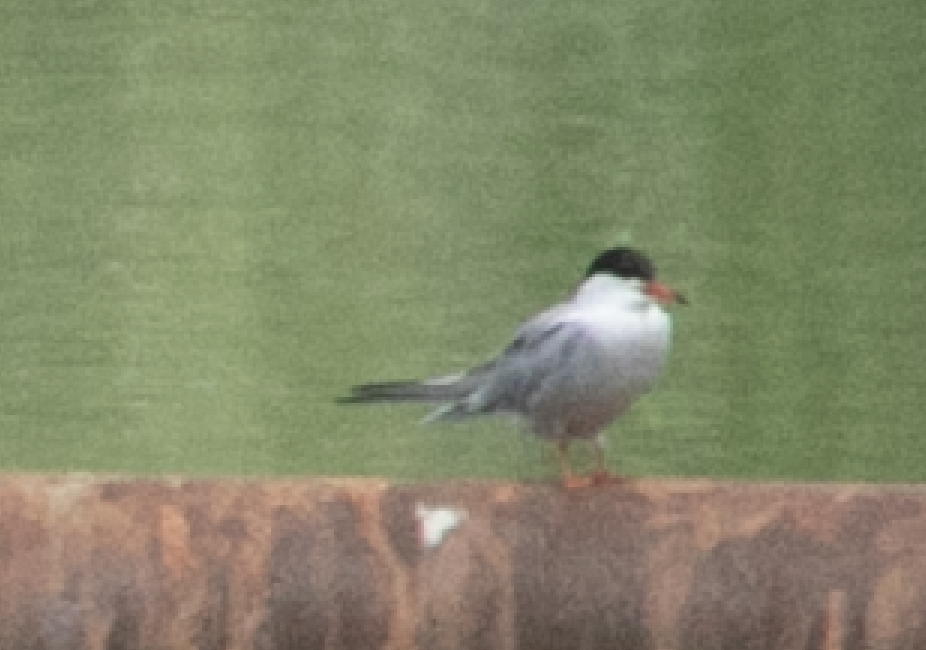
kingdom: Animalia
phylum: Chordata
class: Aves
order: Charadriiformes
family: Laridae
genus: Sterna
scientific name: Sterna hirundo
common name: Common tern
